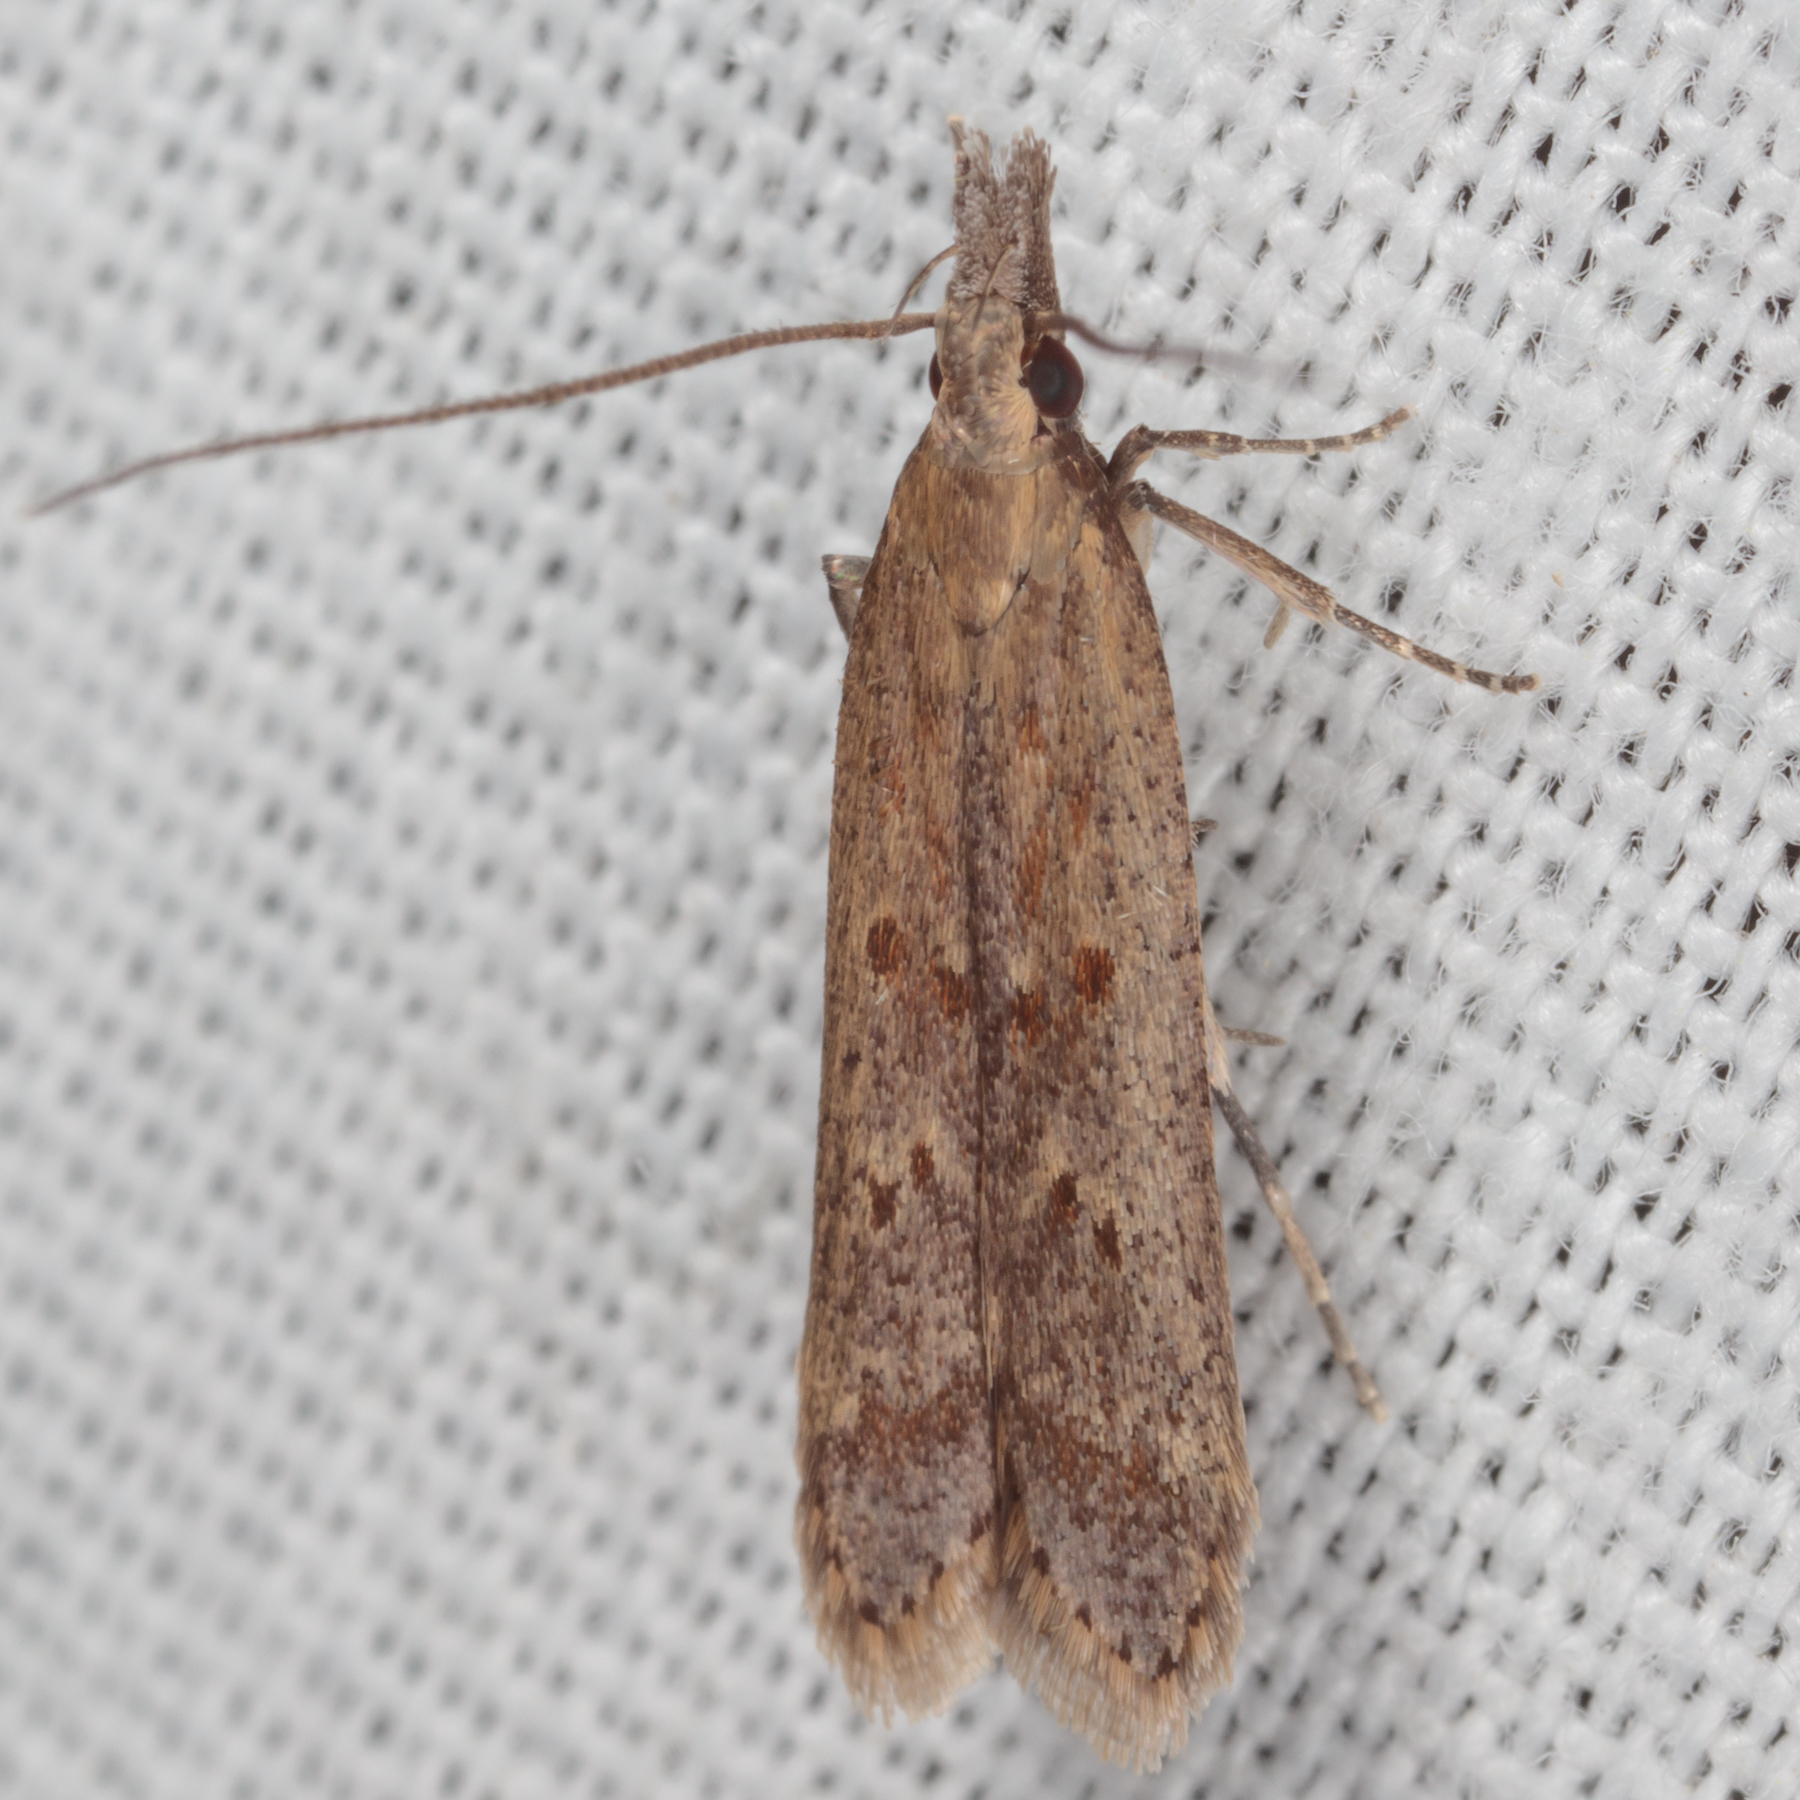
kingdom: Animalia
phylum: Arthropoda
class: Insecta
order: Lepidoptera
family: Gelechiidae
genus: Dichomeris
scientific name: Dichomeris ligulella
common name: Moth
